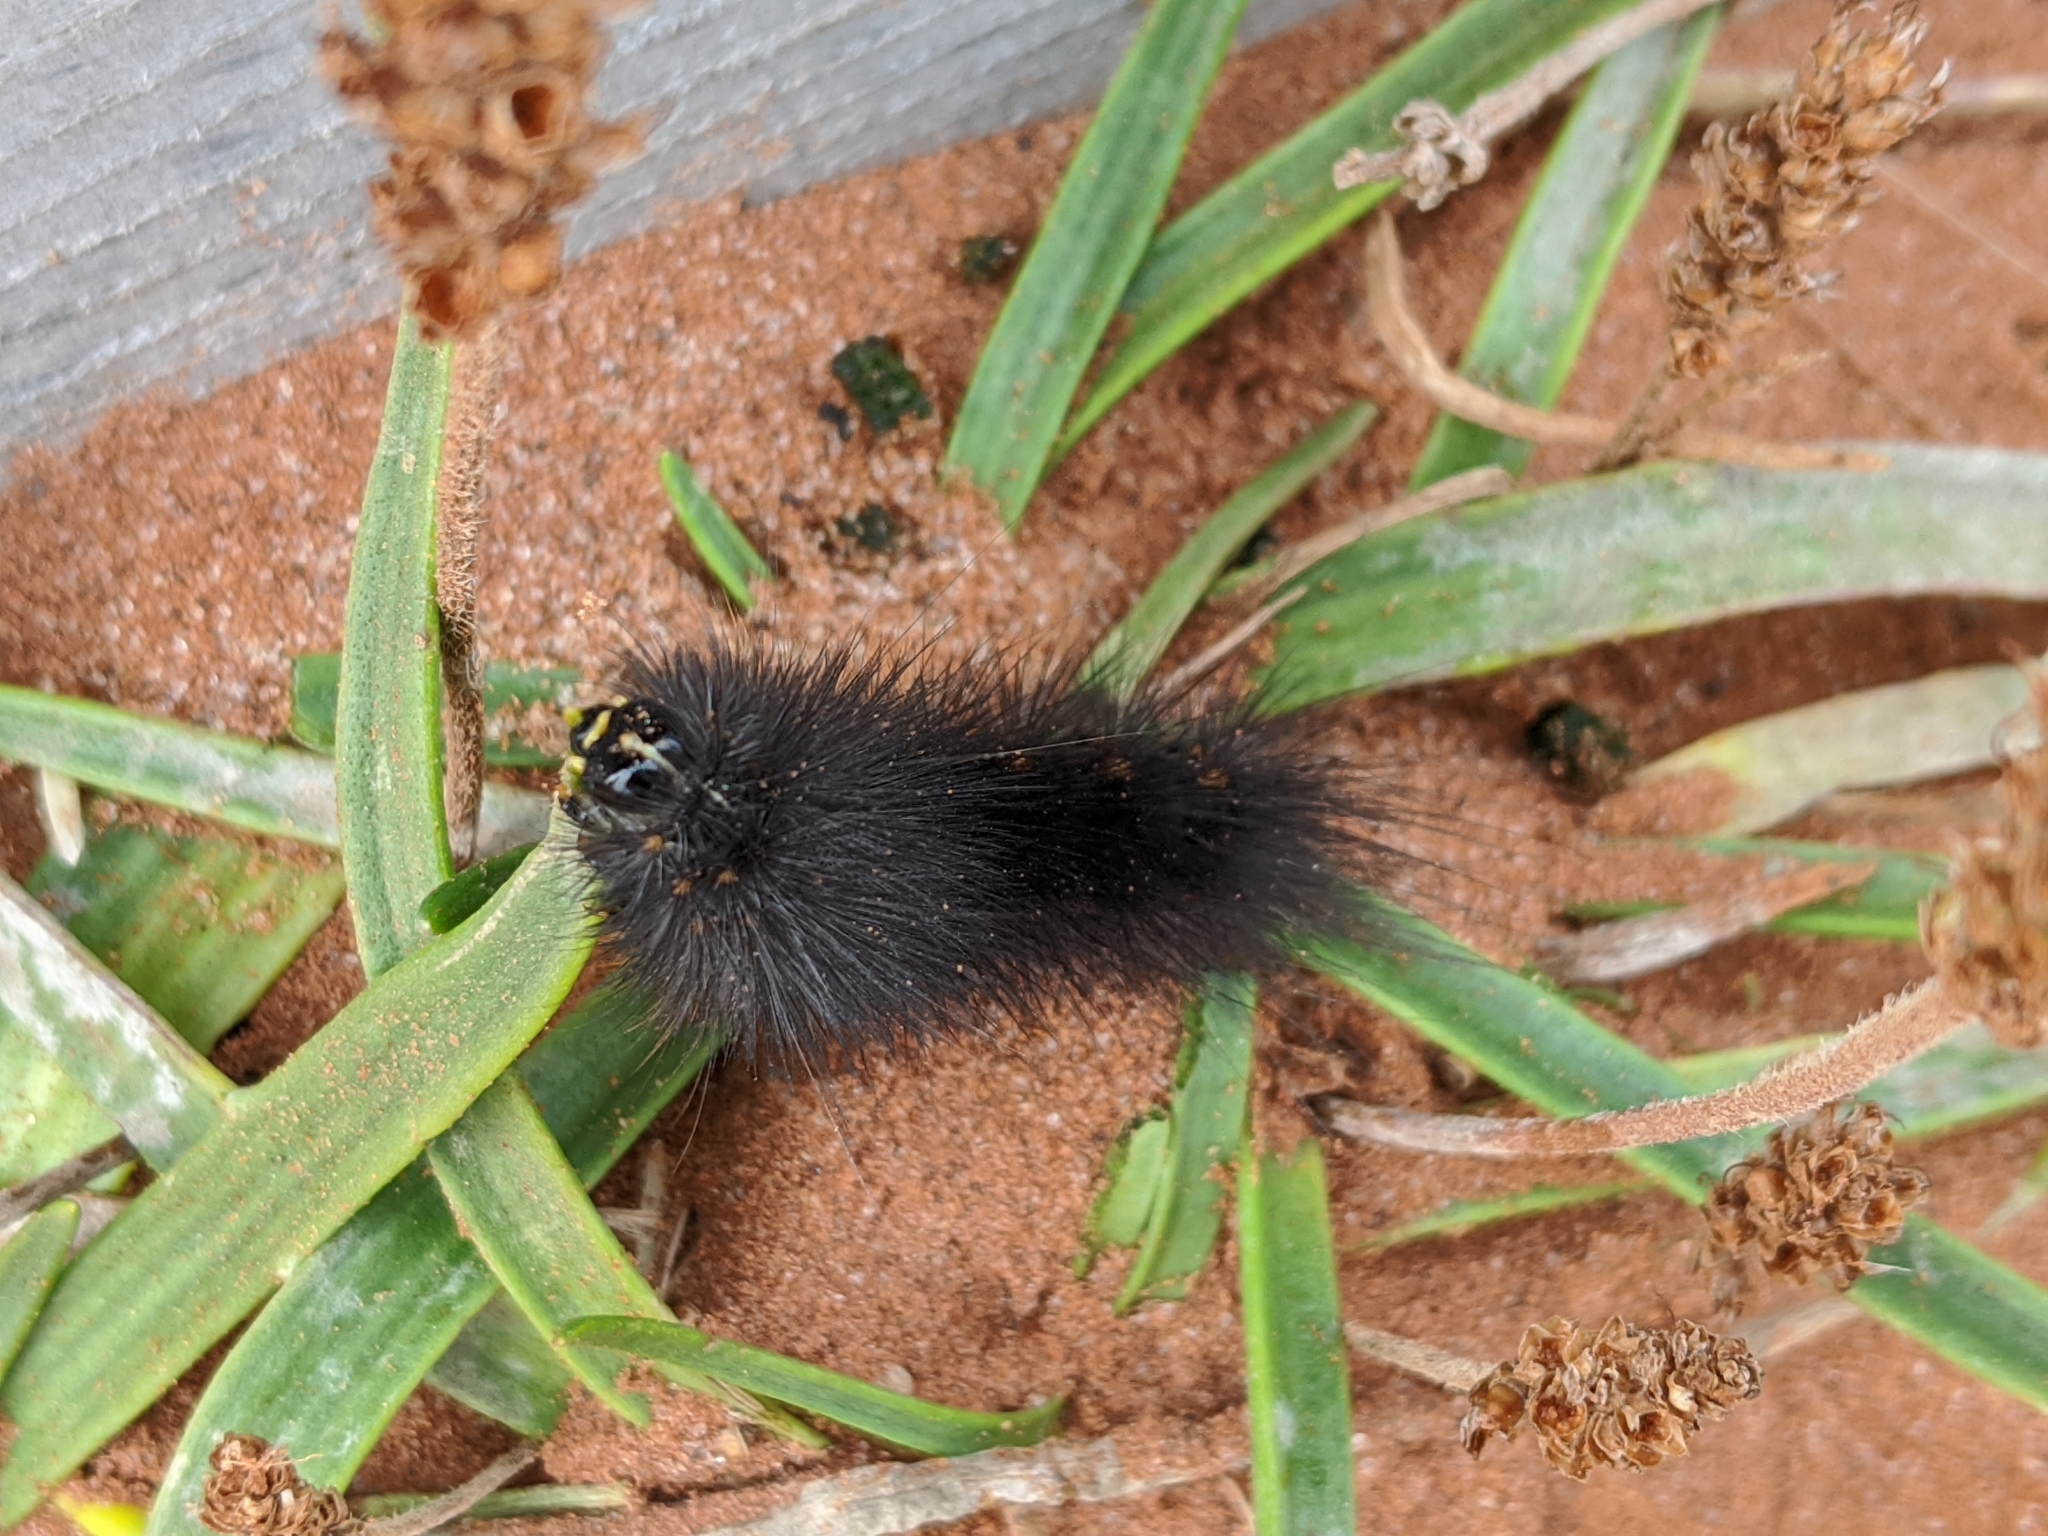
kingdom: Animalia
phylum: Arthropoda
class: Insecta
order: Lepidoptera
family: Erebidae
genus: Estigmene
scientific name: Estigmene acrea
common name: Salt marsh moth
